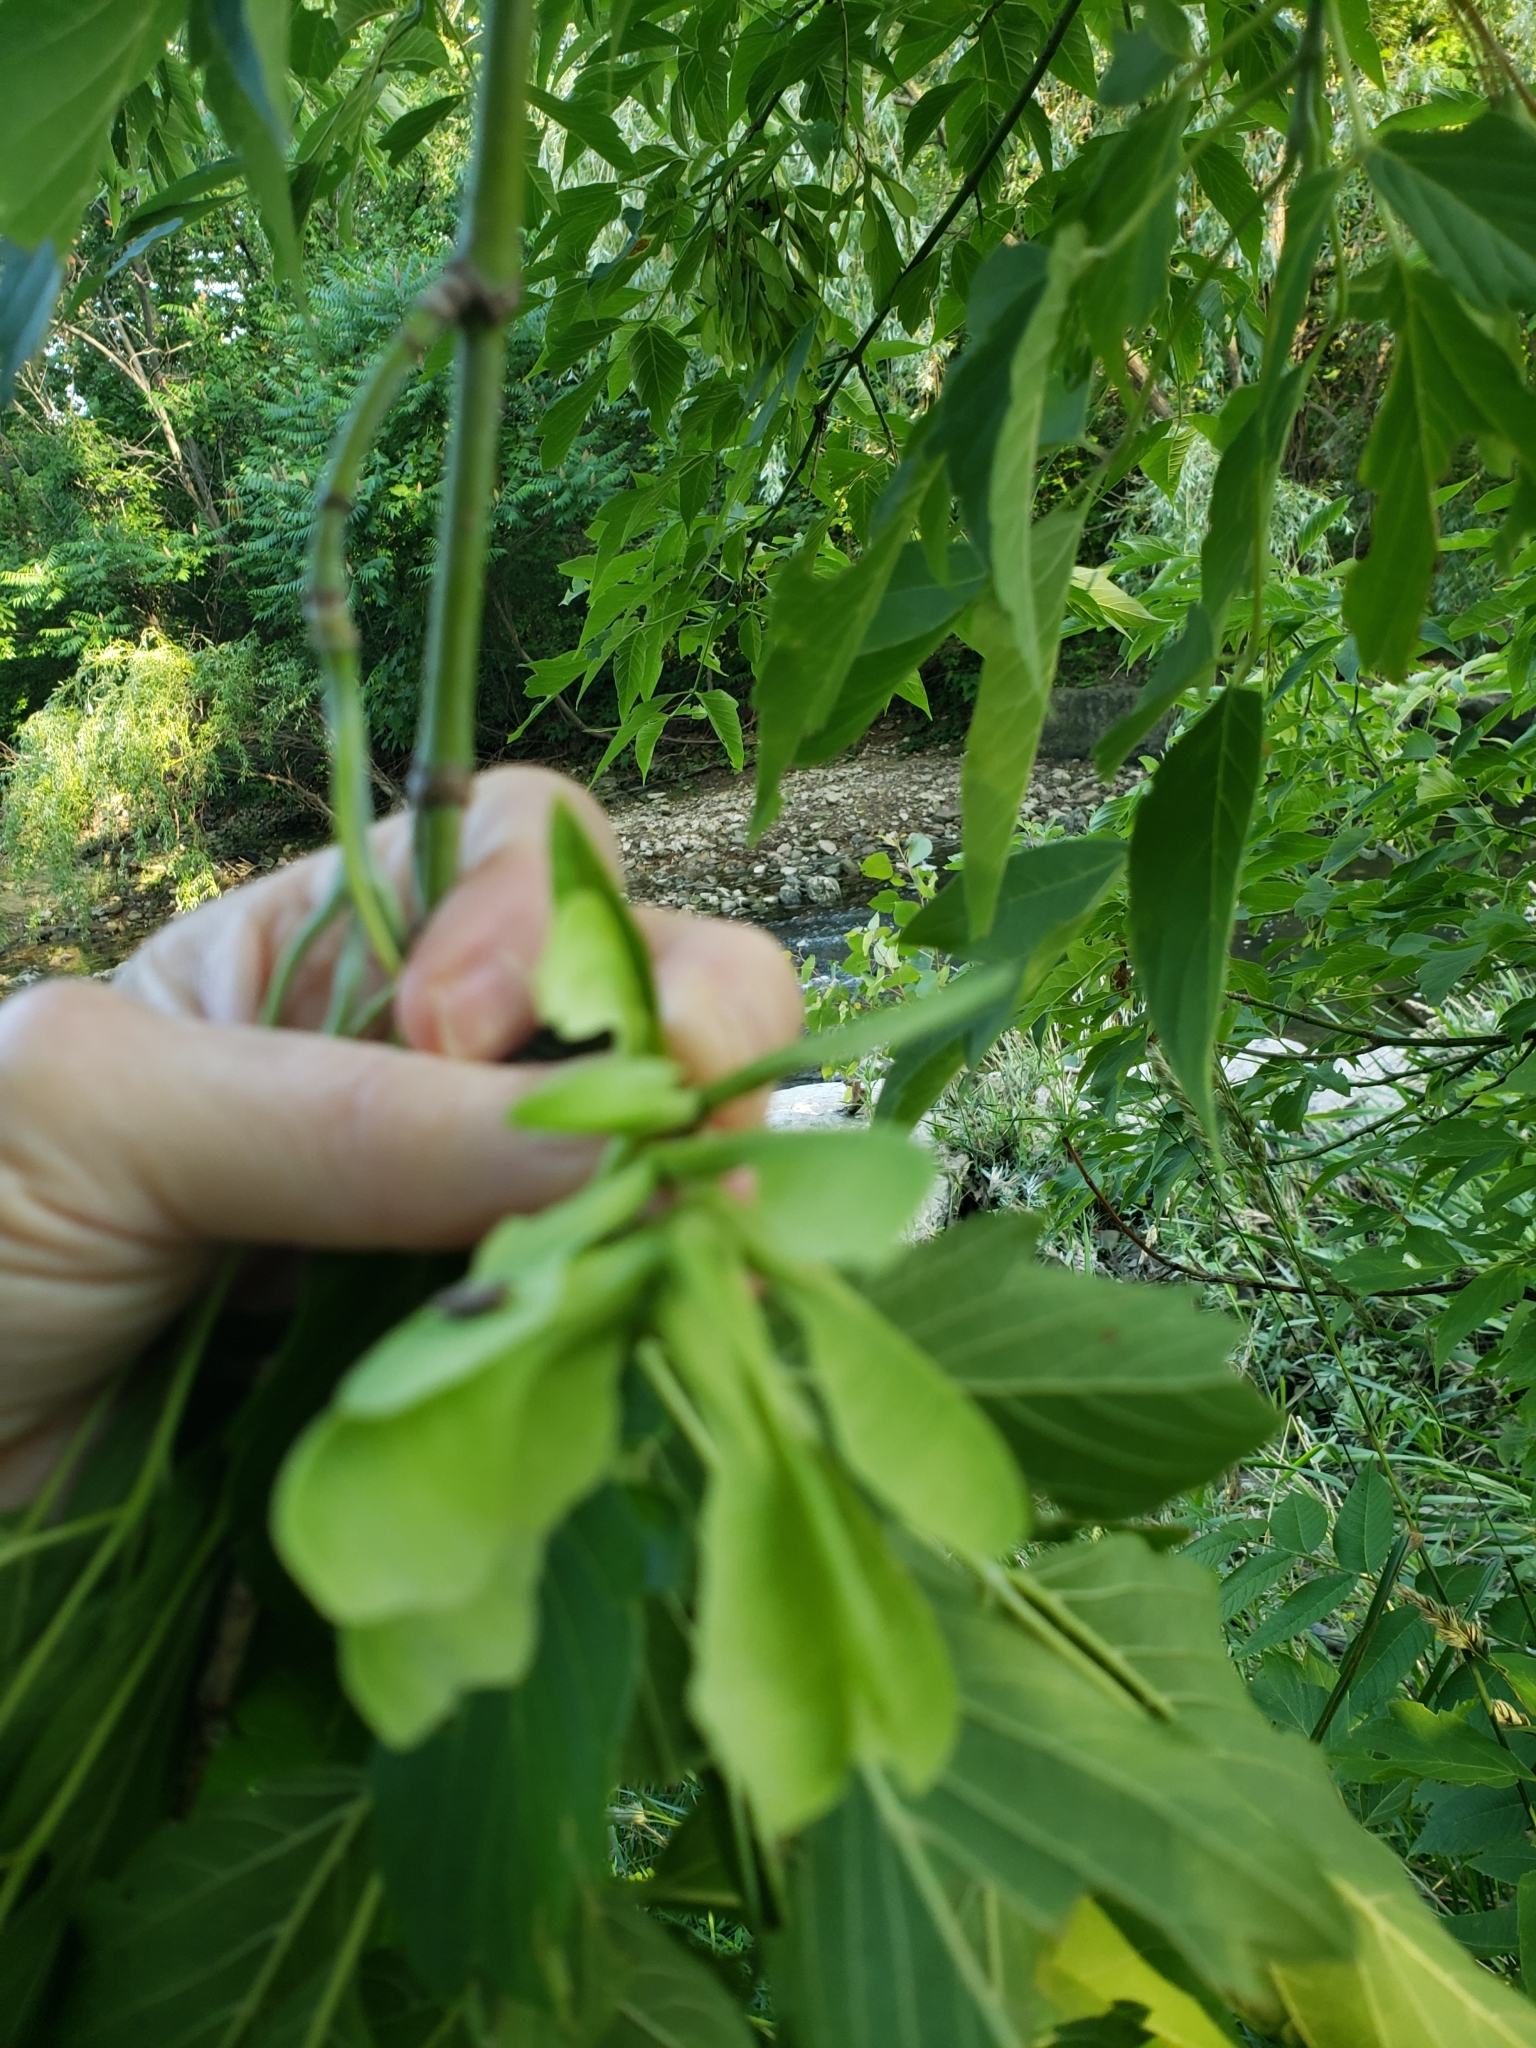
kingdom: Plantae
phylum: Tracheophyta
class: Magnoliopsida
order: Sapindales
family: Sapindaceae
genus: Acer
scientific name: Acer negundo
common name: Ashleaf maple
